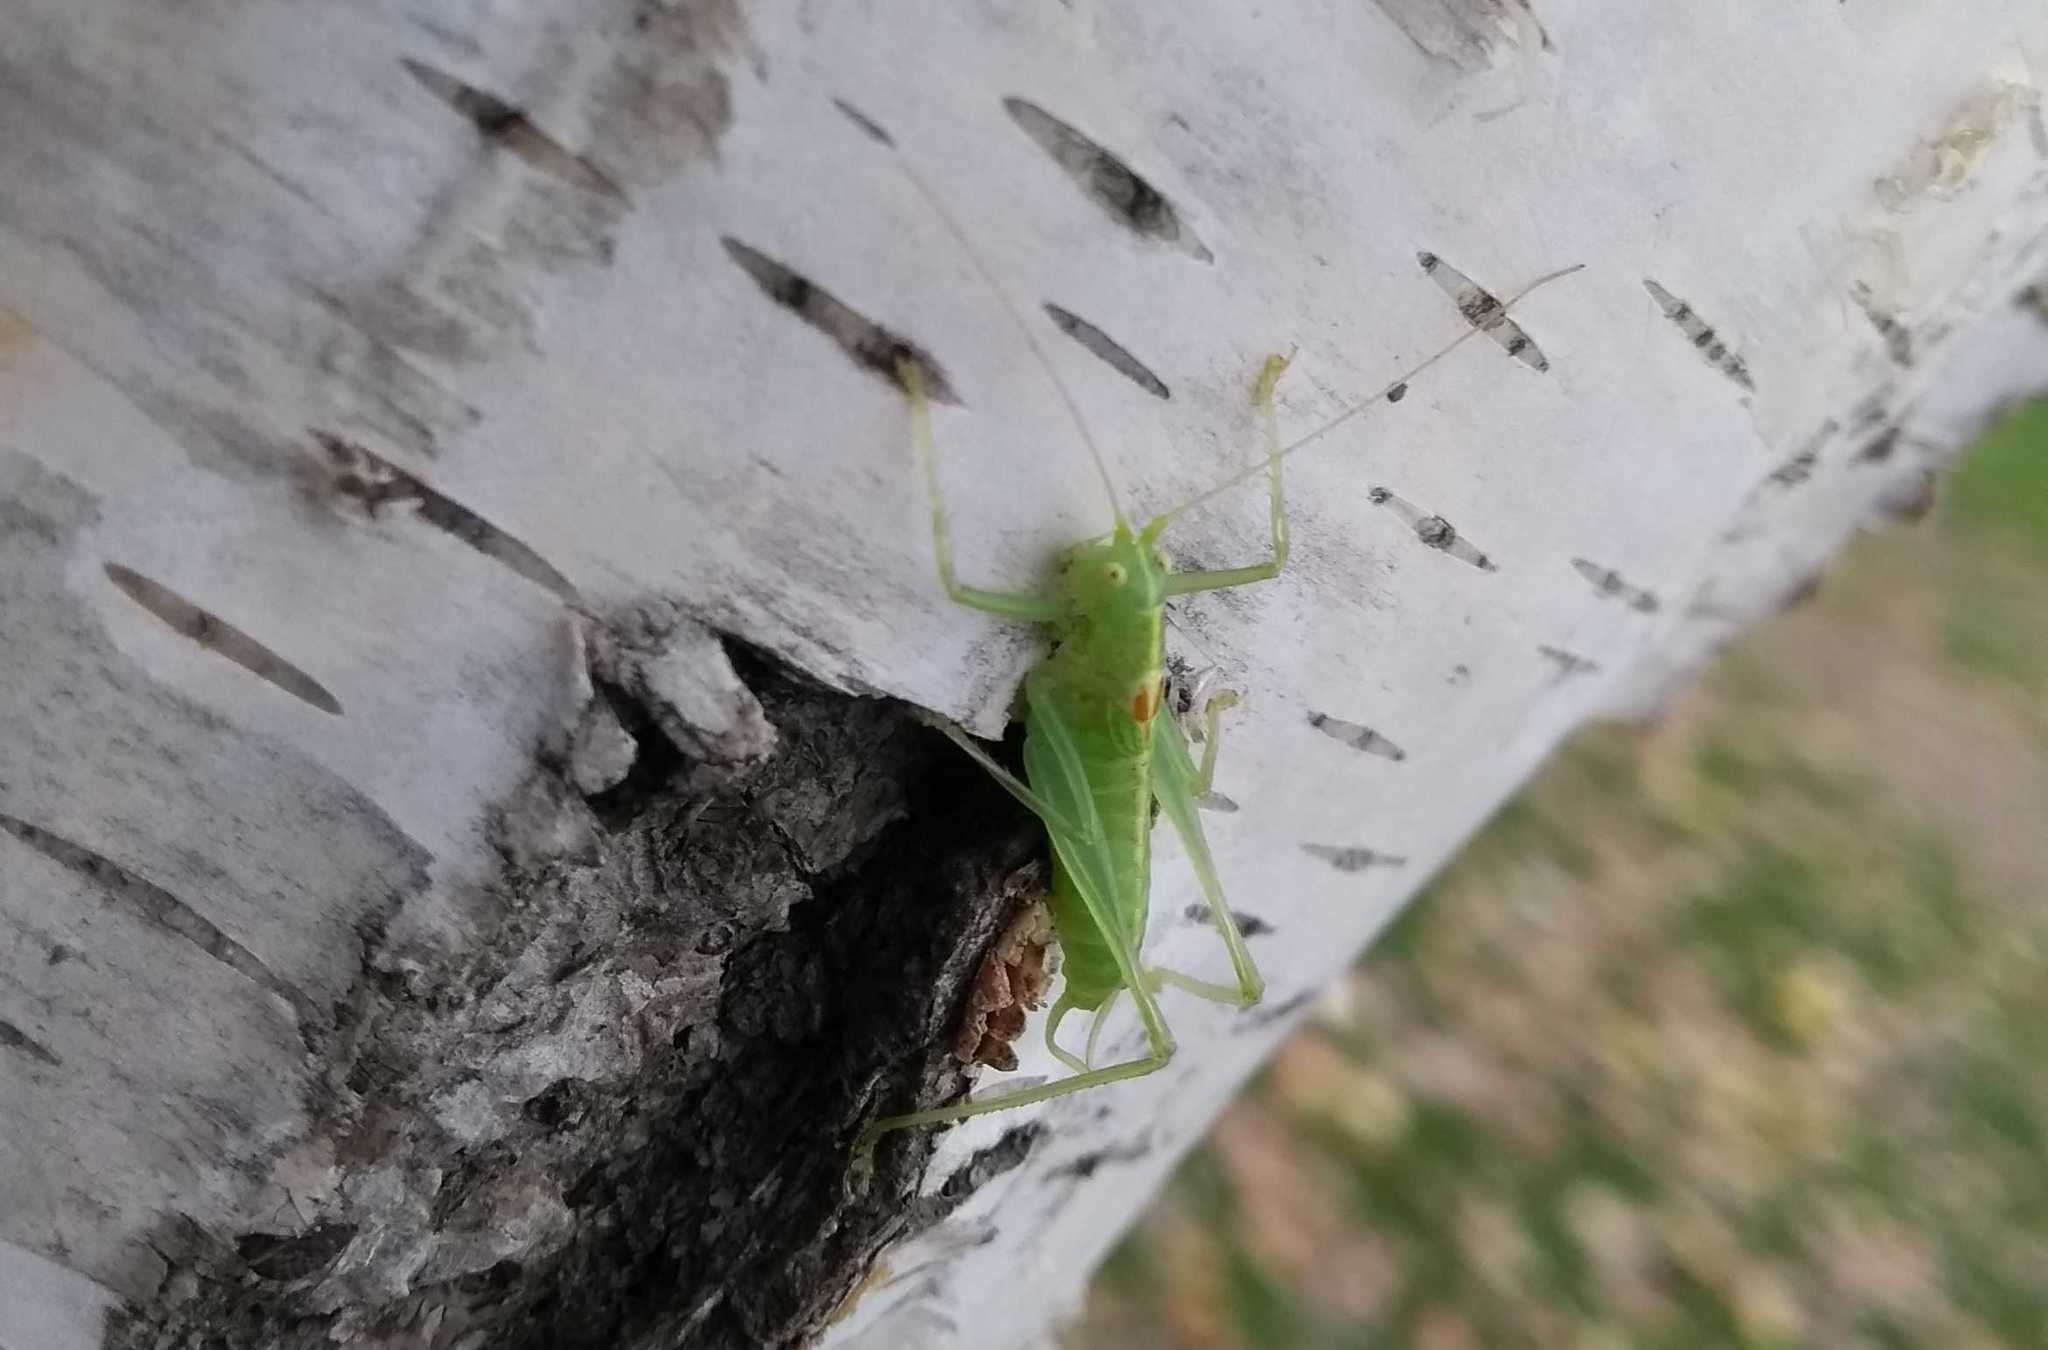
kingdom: Animalia
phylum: Arthropoda
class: Insecta
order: Orthoptera
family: Tettigoniidae
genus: Meconema
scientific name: Meconema meridionale
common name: Southern oak bush-cricket
